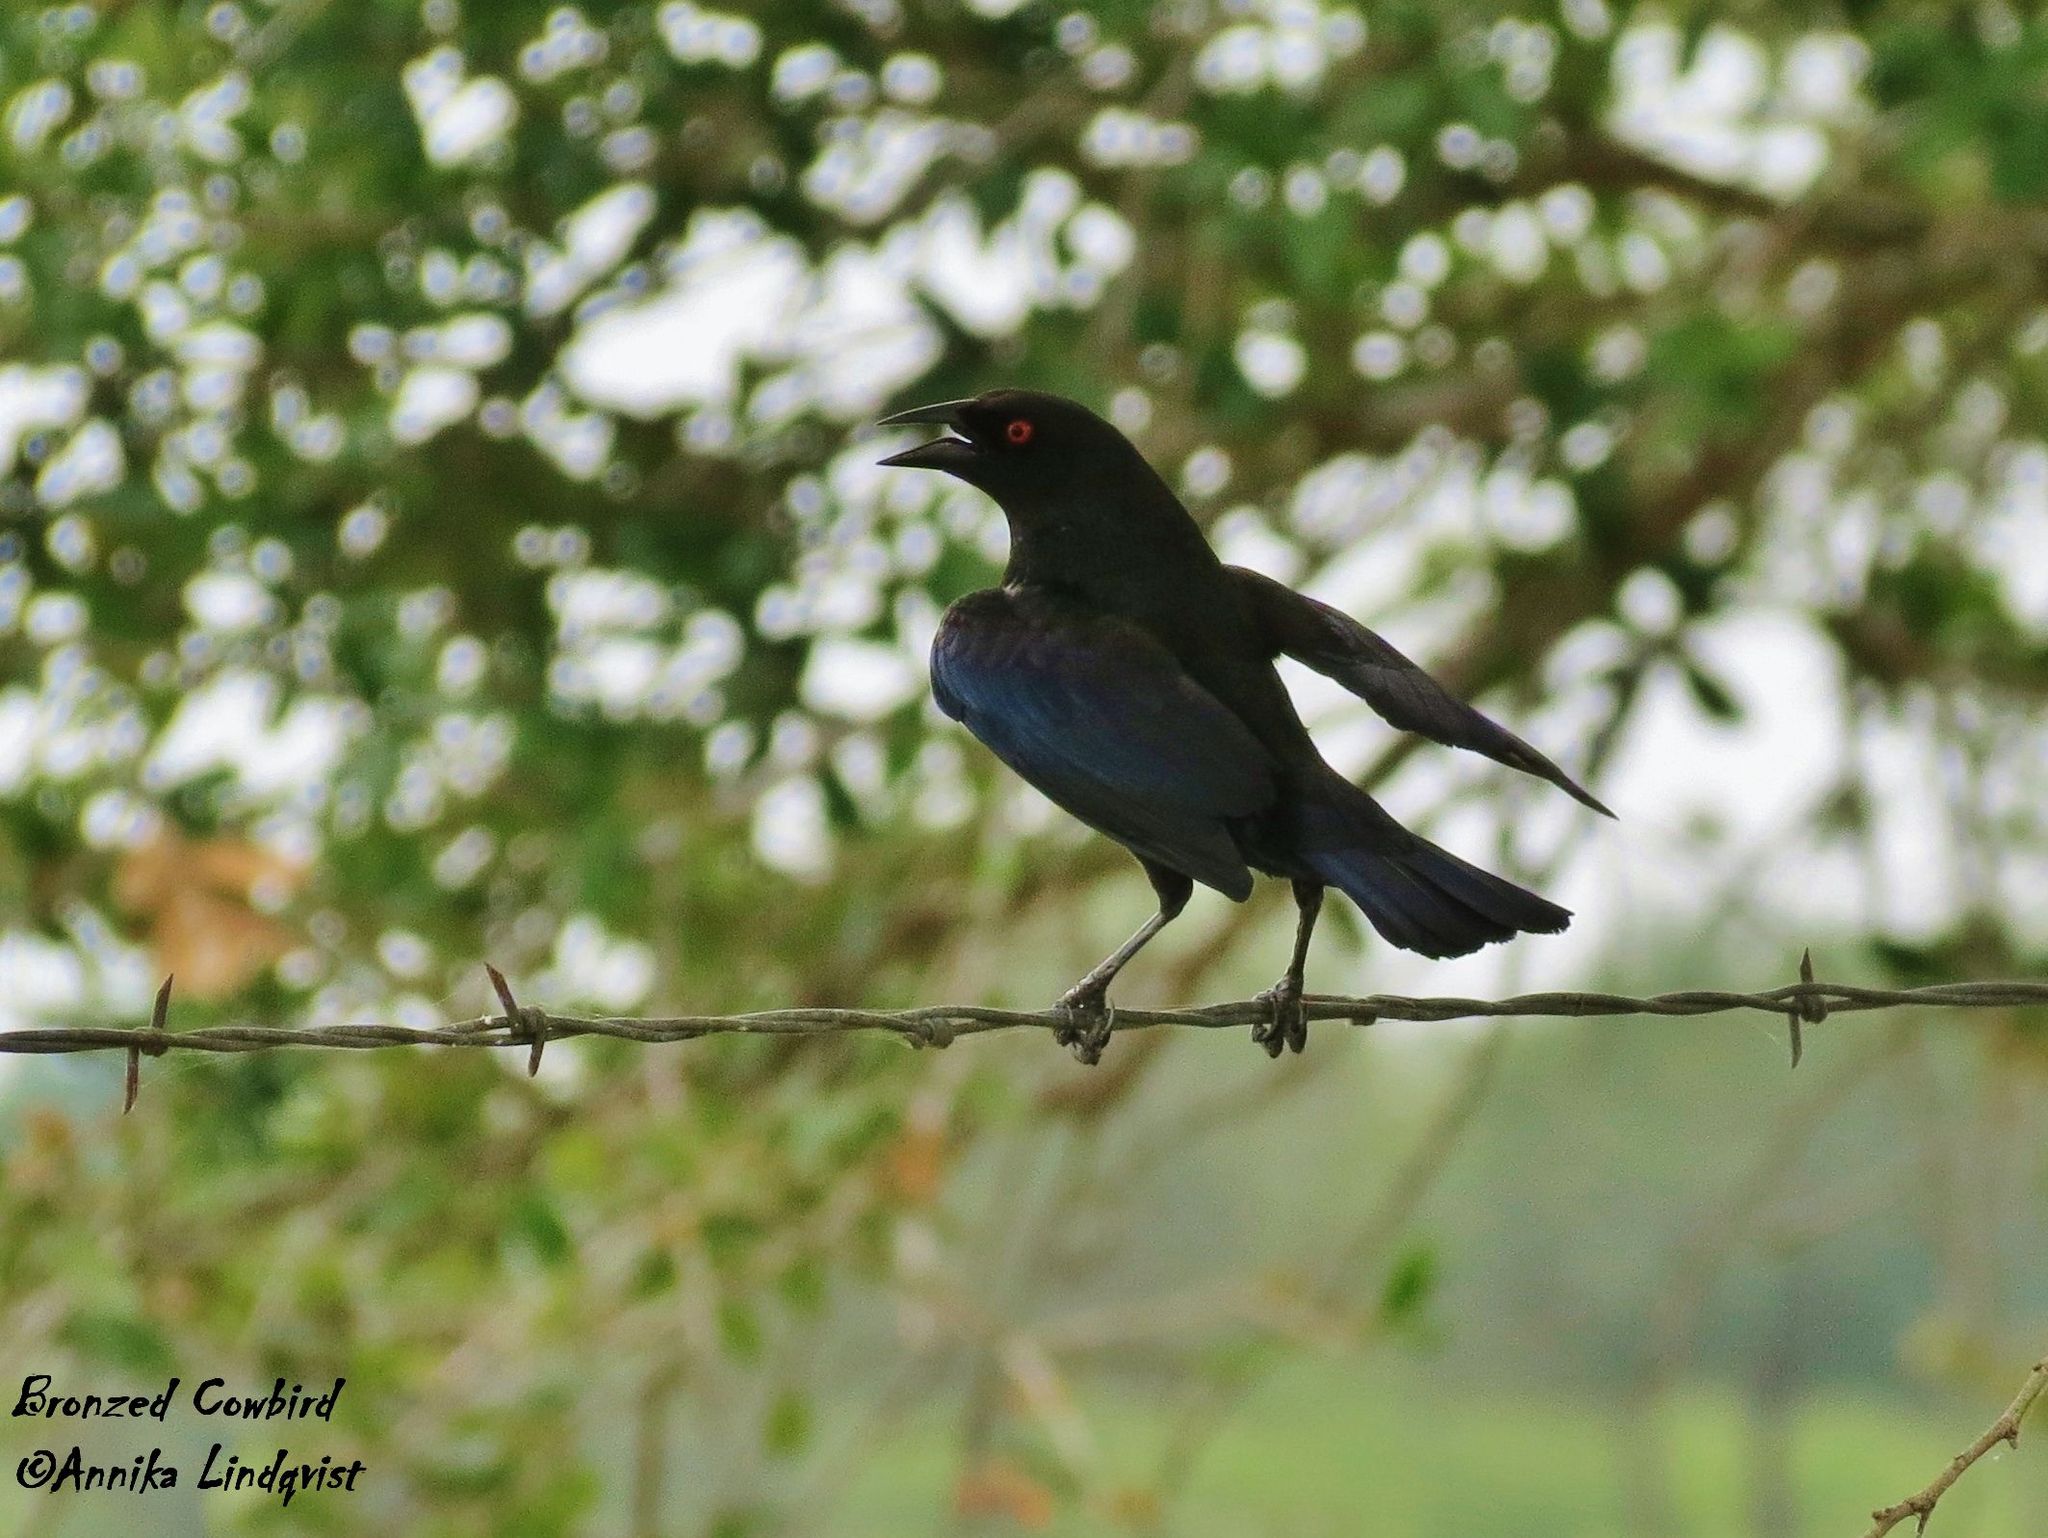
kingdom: Animalia
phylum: Chordata
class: Aves
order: Passeriformes
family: Icteridae
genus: Molothrus
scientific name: Molothrus aeneus
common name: Bronzed cowbird
